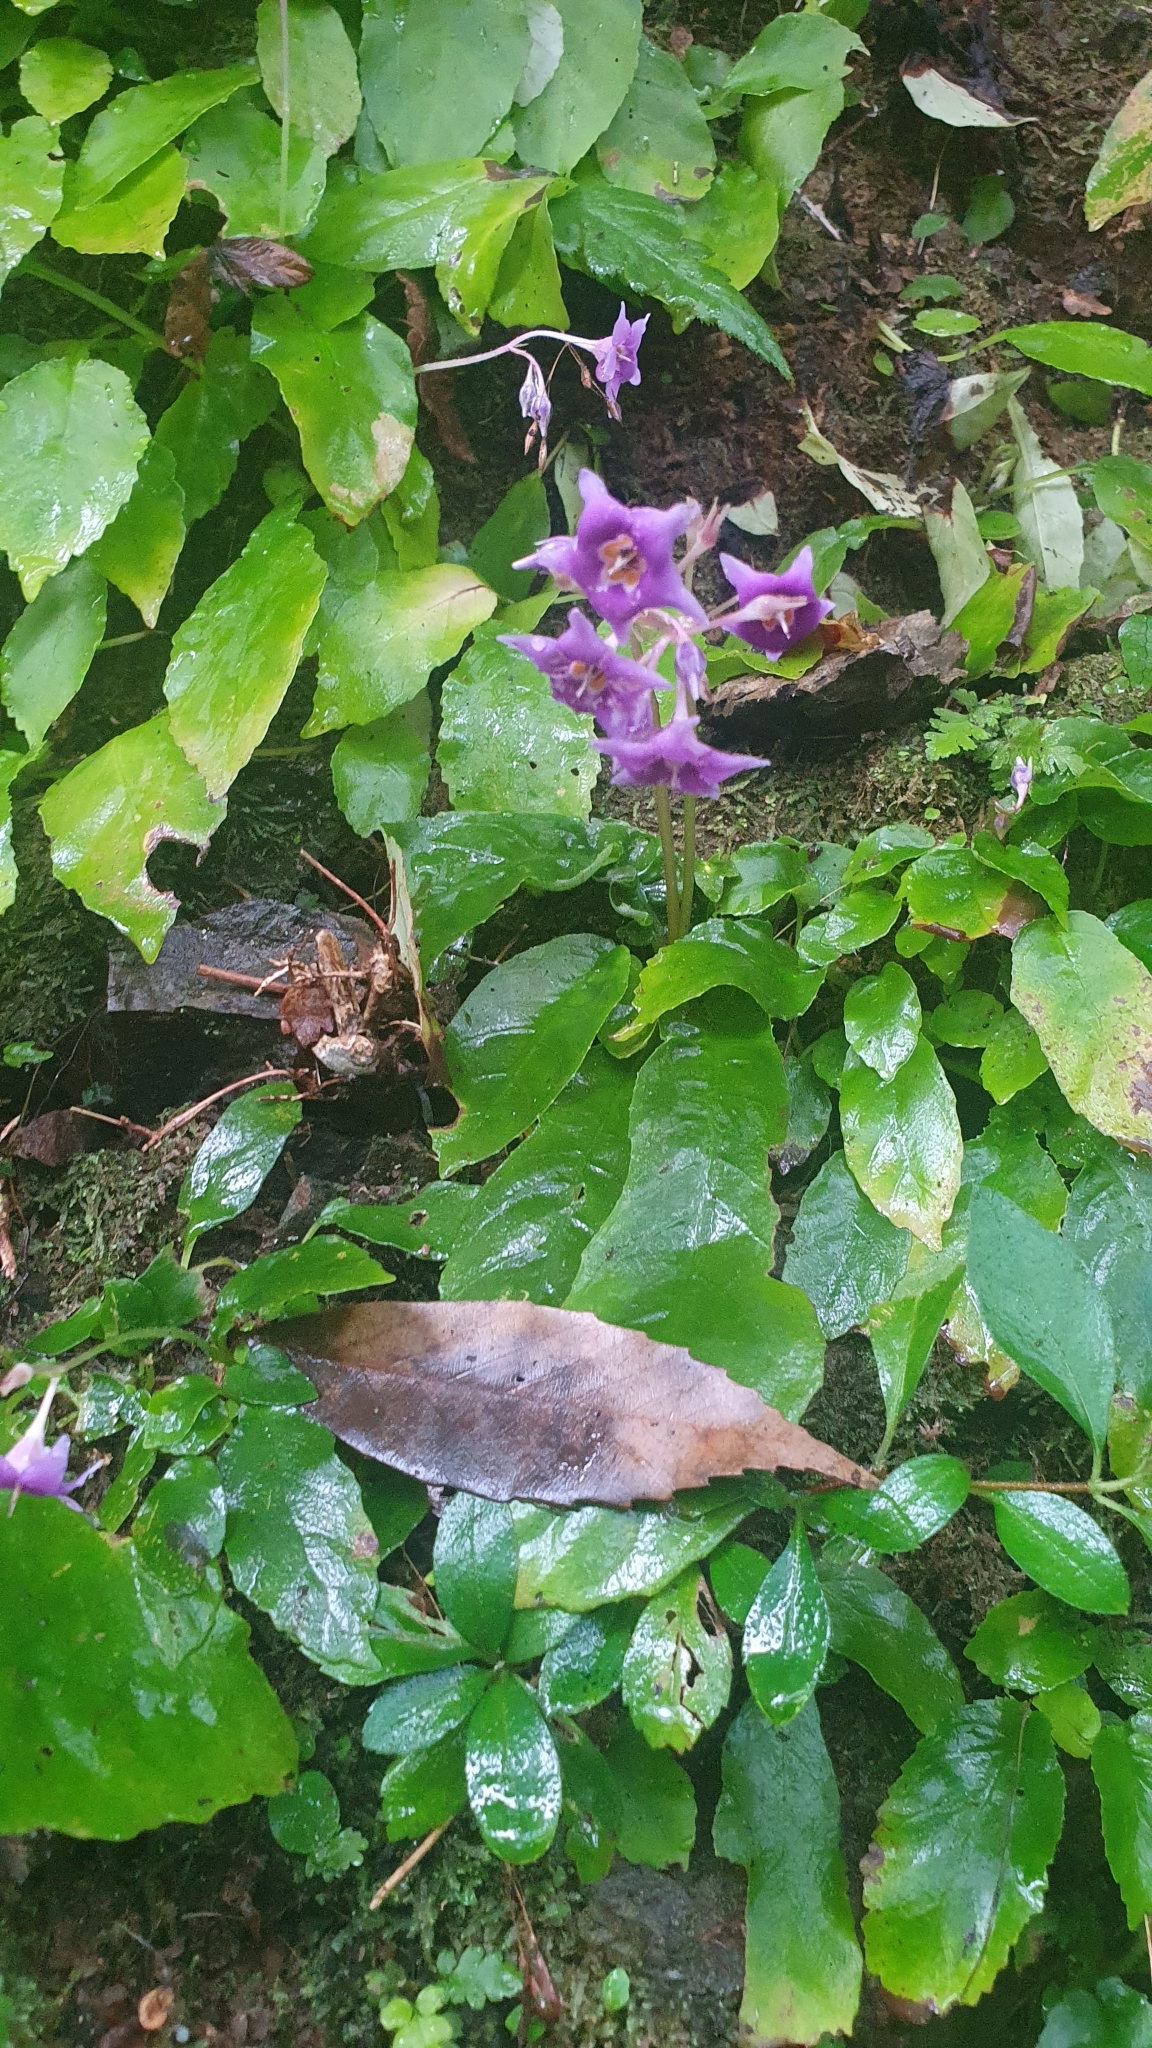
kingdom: Plantae
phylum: Tracheophyta
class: Magnoliopsida
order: Lamiales
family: Gesneriaceae
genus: Conandron
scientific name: Conandron ramondioides
